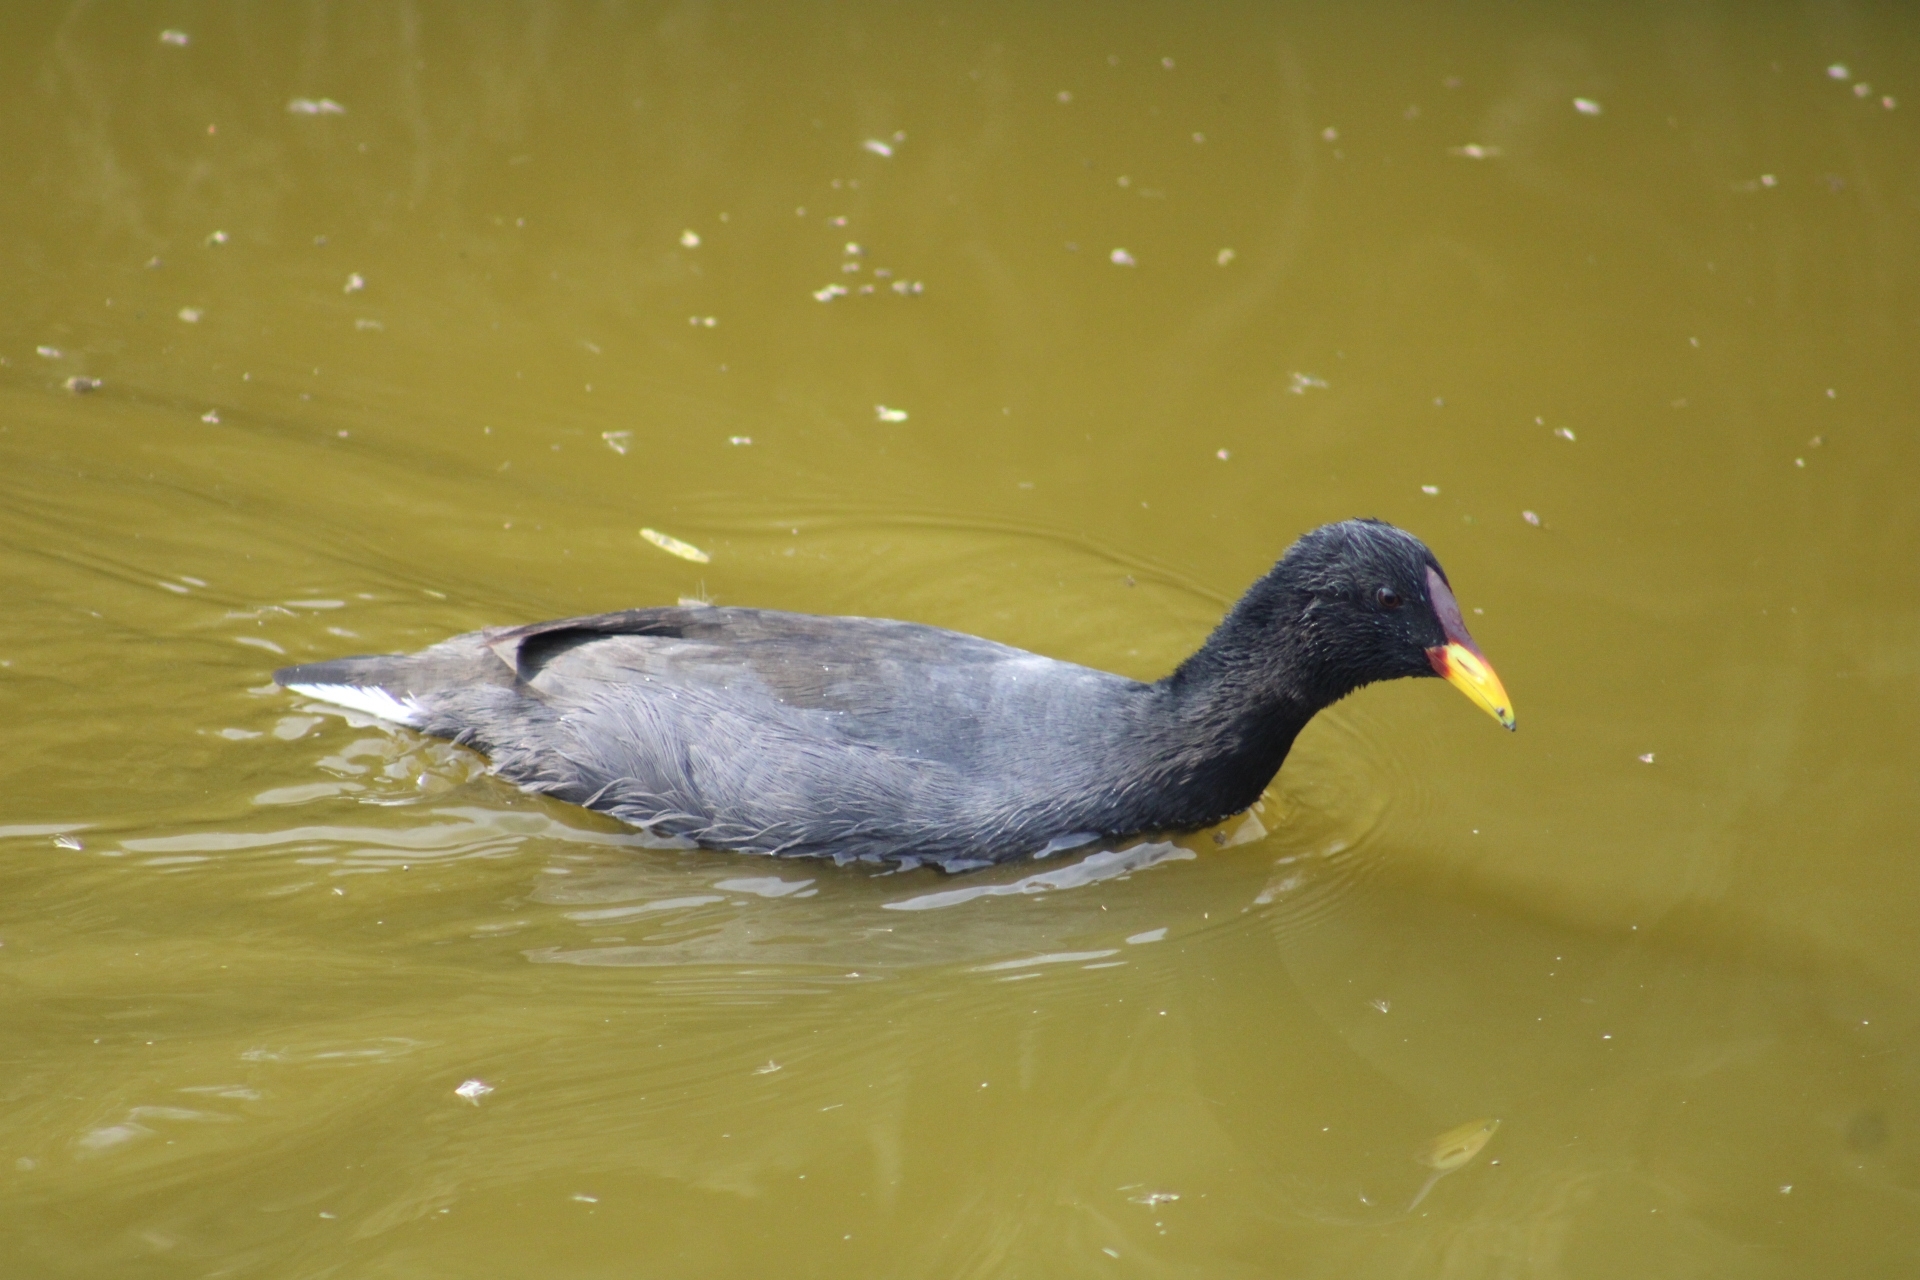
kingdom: Animalia
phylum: Chordata
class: Aves
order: Gruiformes
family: Rallidae
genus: Fulica
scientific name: Fulica rufifrons
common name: Red-fronted coot
